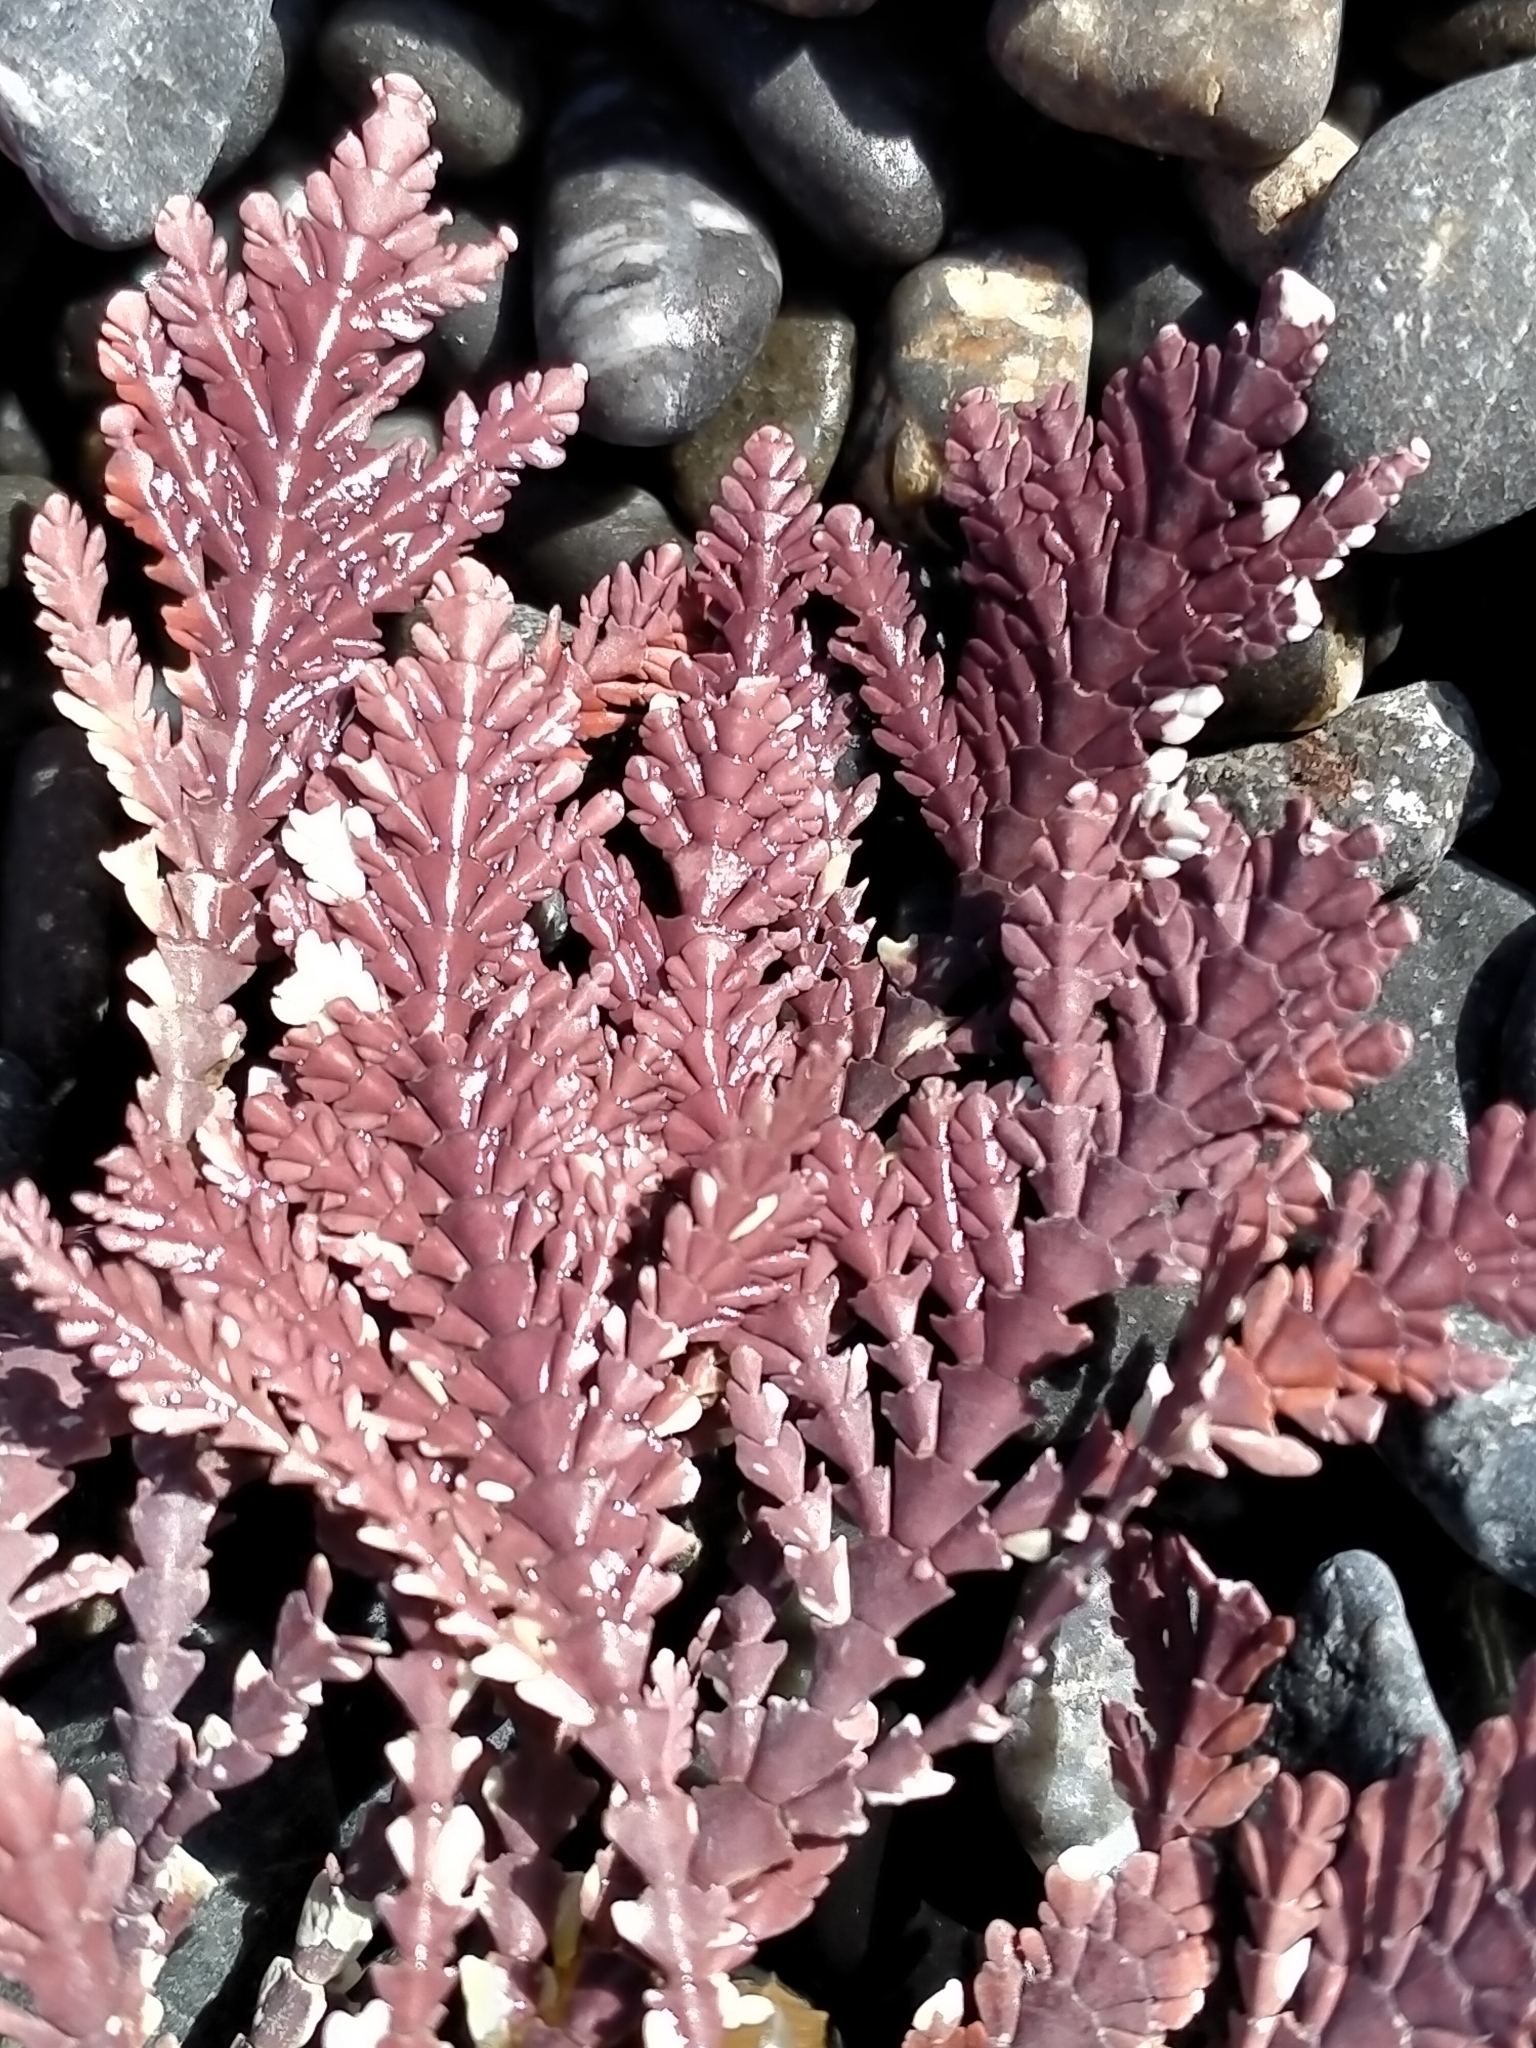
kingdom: Plantae
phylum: Rhodophyta
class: Florideophyceae
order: Corallinales
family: Corallinaceae
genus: Arthrocardia
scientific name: Arthrocardia corymbosa
